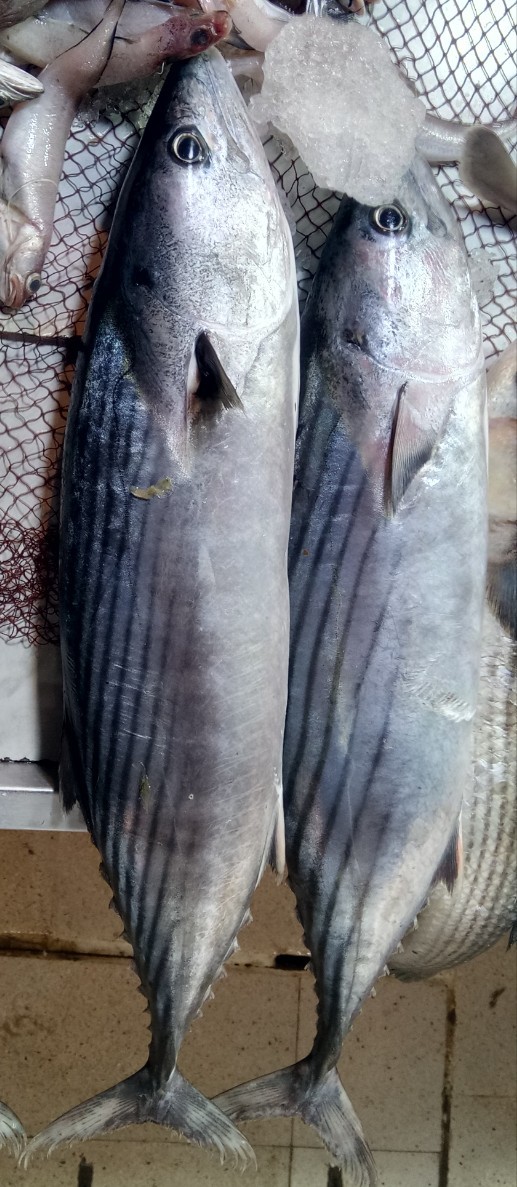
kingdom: Animalia
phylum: Chordata
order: Perciformes
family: Scombridae
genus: Sarda
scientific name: Sarda sarda
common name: Atlantic bonito
